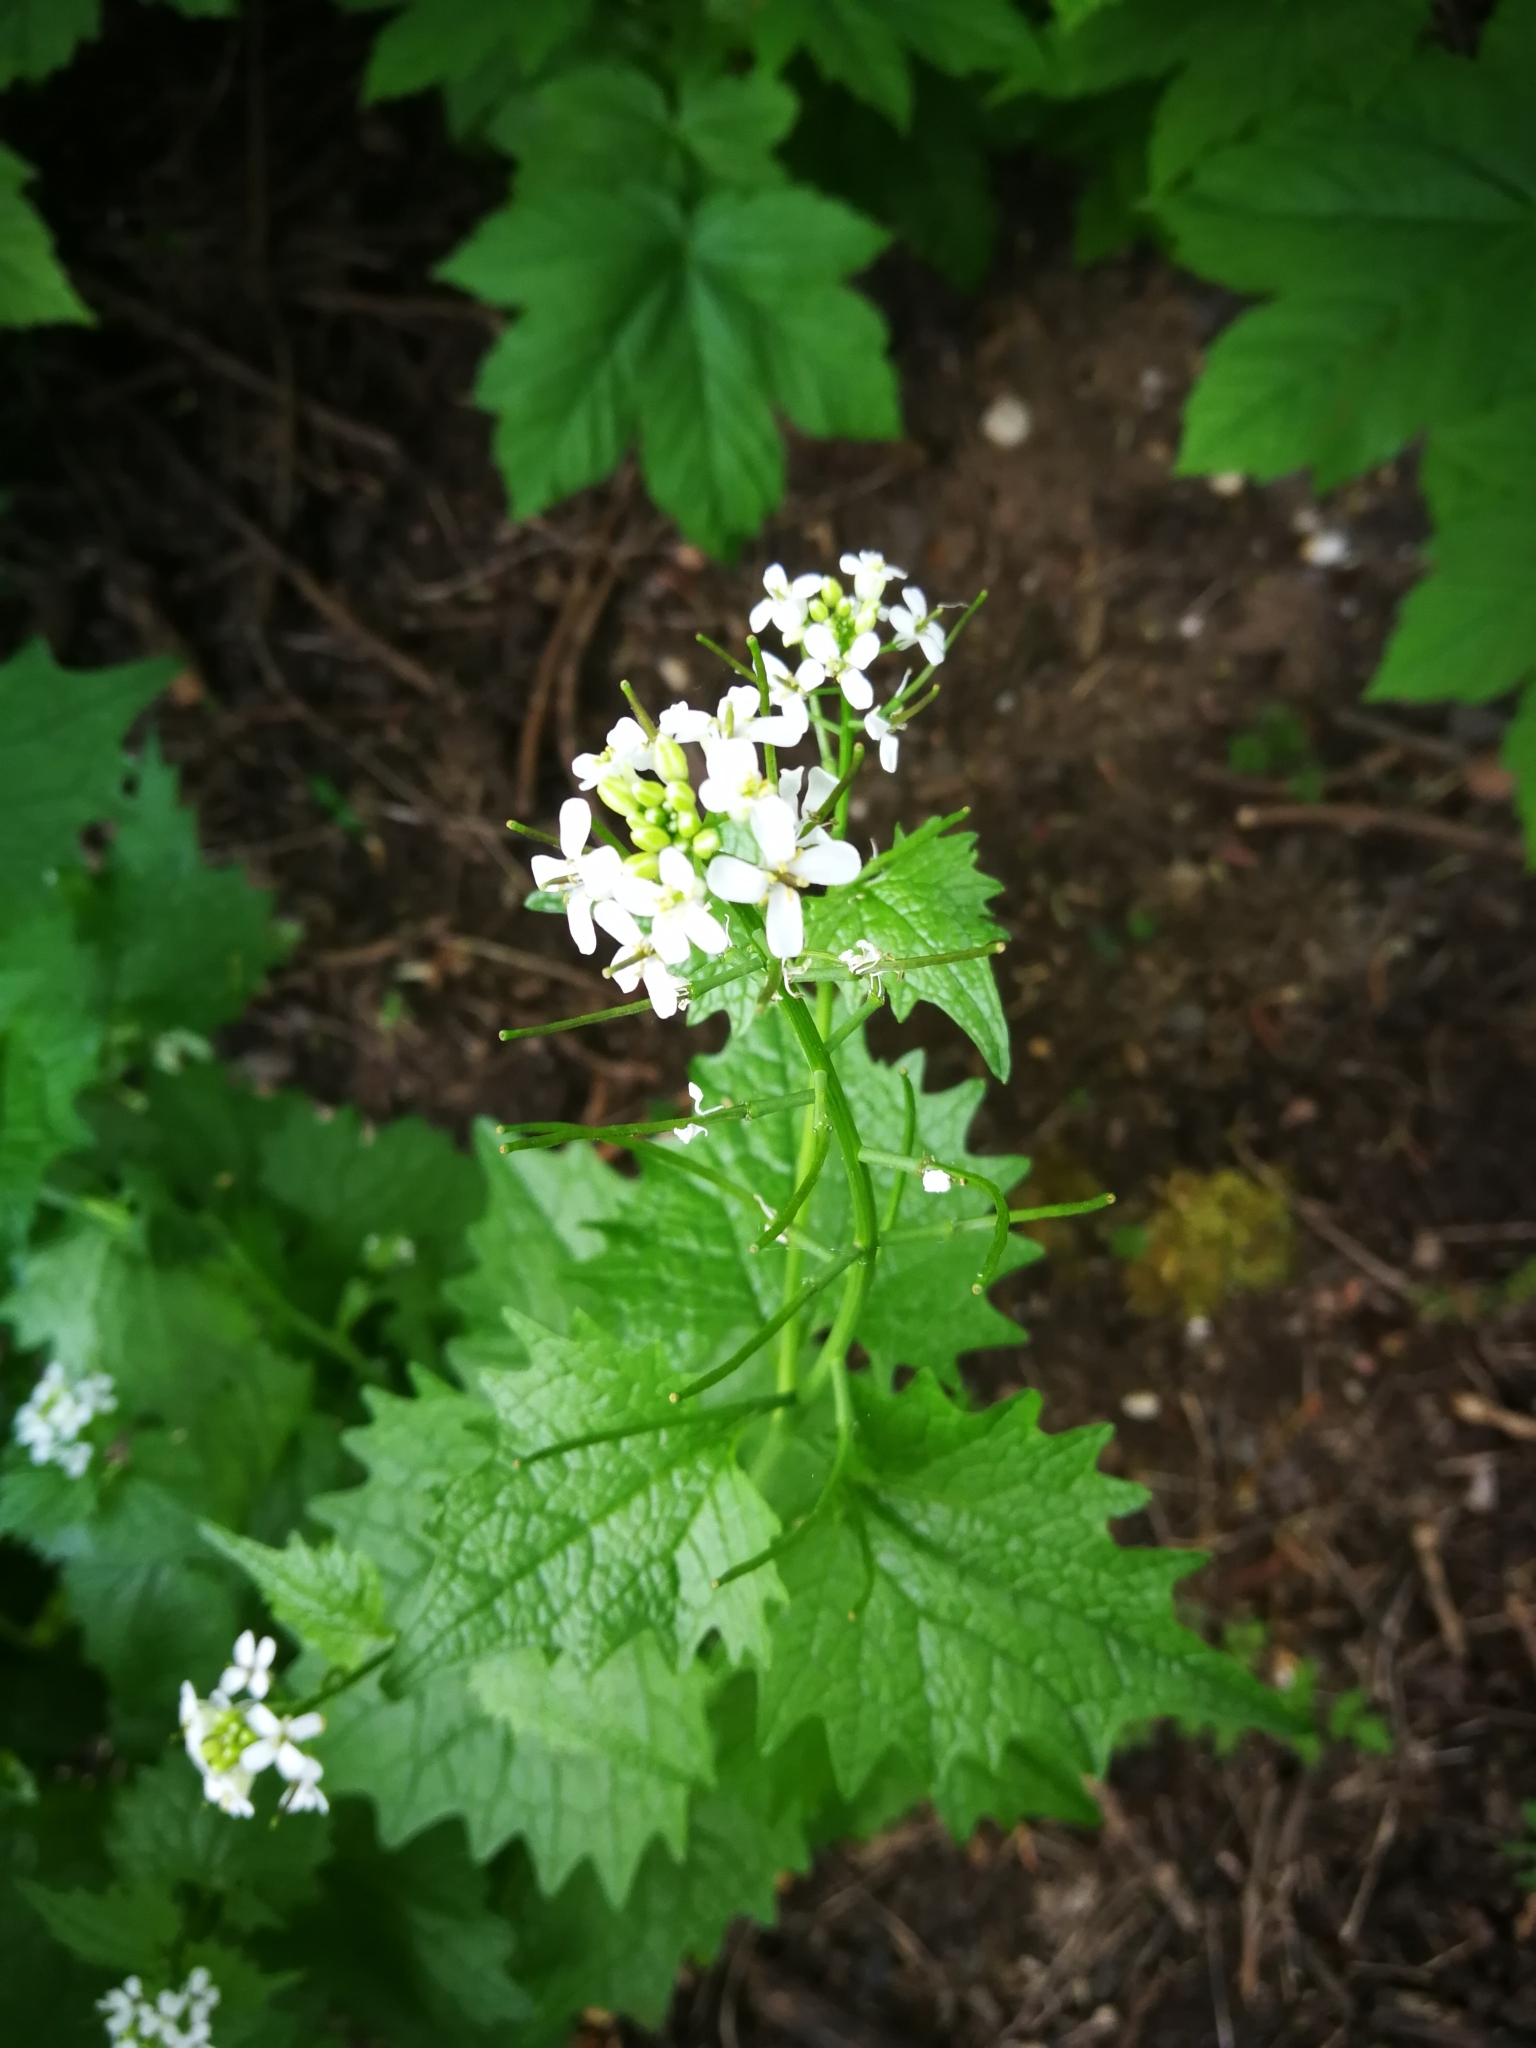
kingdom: Plantae
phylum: Tracheophyta
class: Magnoliopsida
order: Brassicales
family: Brassicaceae
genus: Alliaria
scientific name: Alliaria petiolata
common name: Garlic mustard
